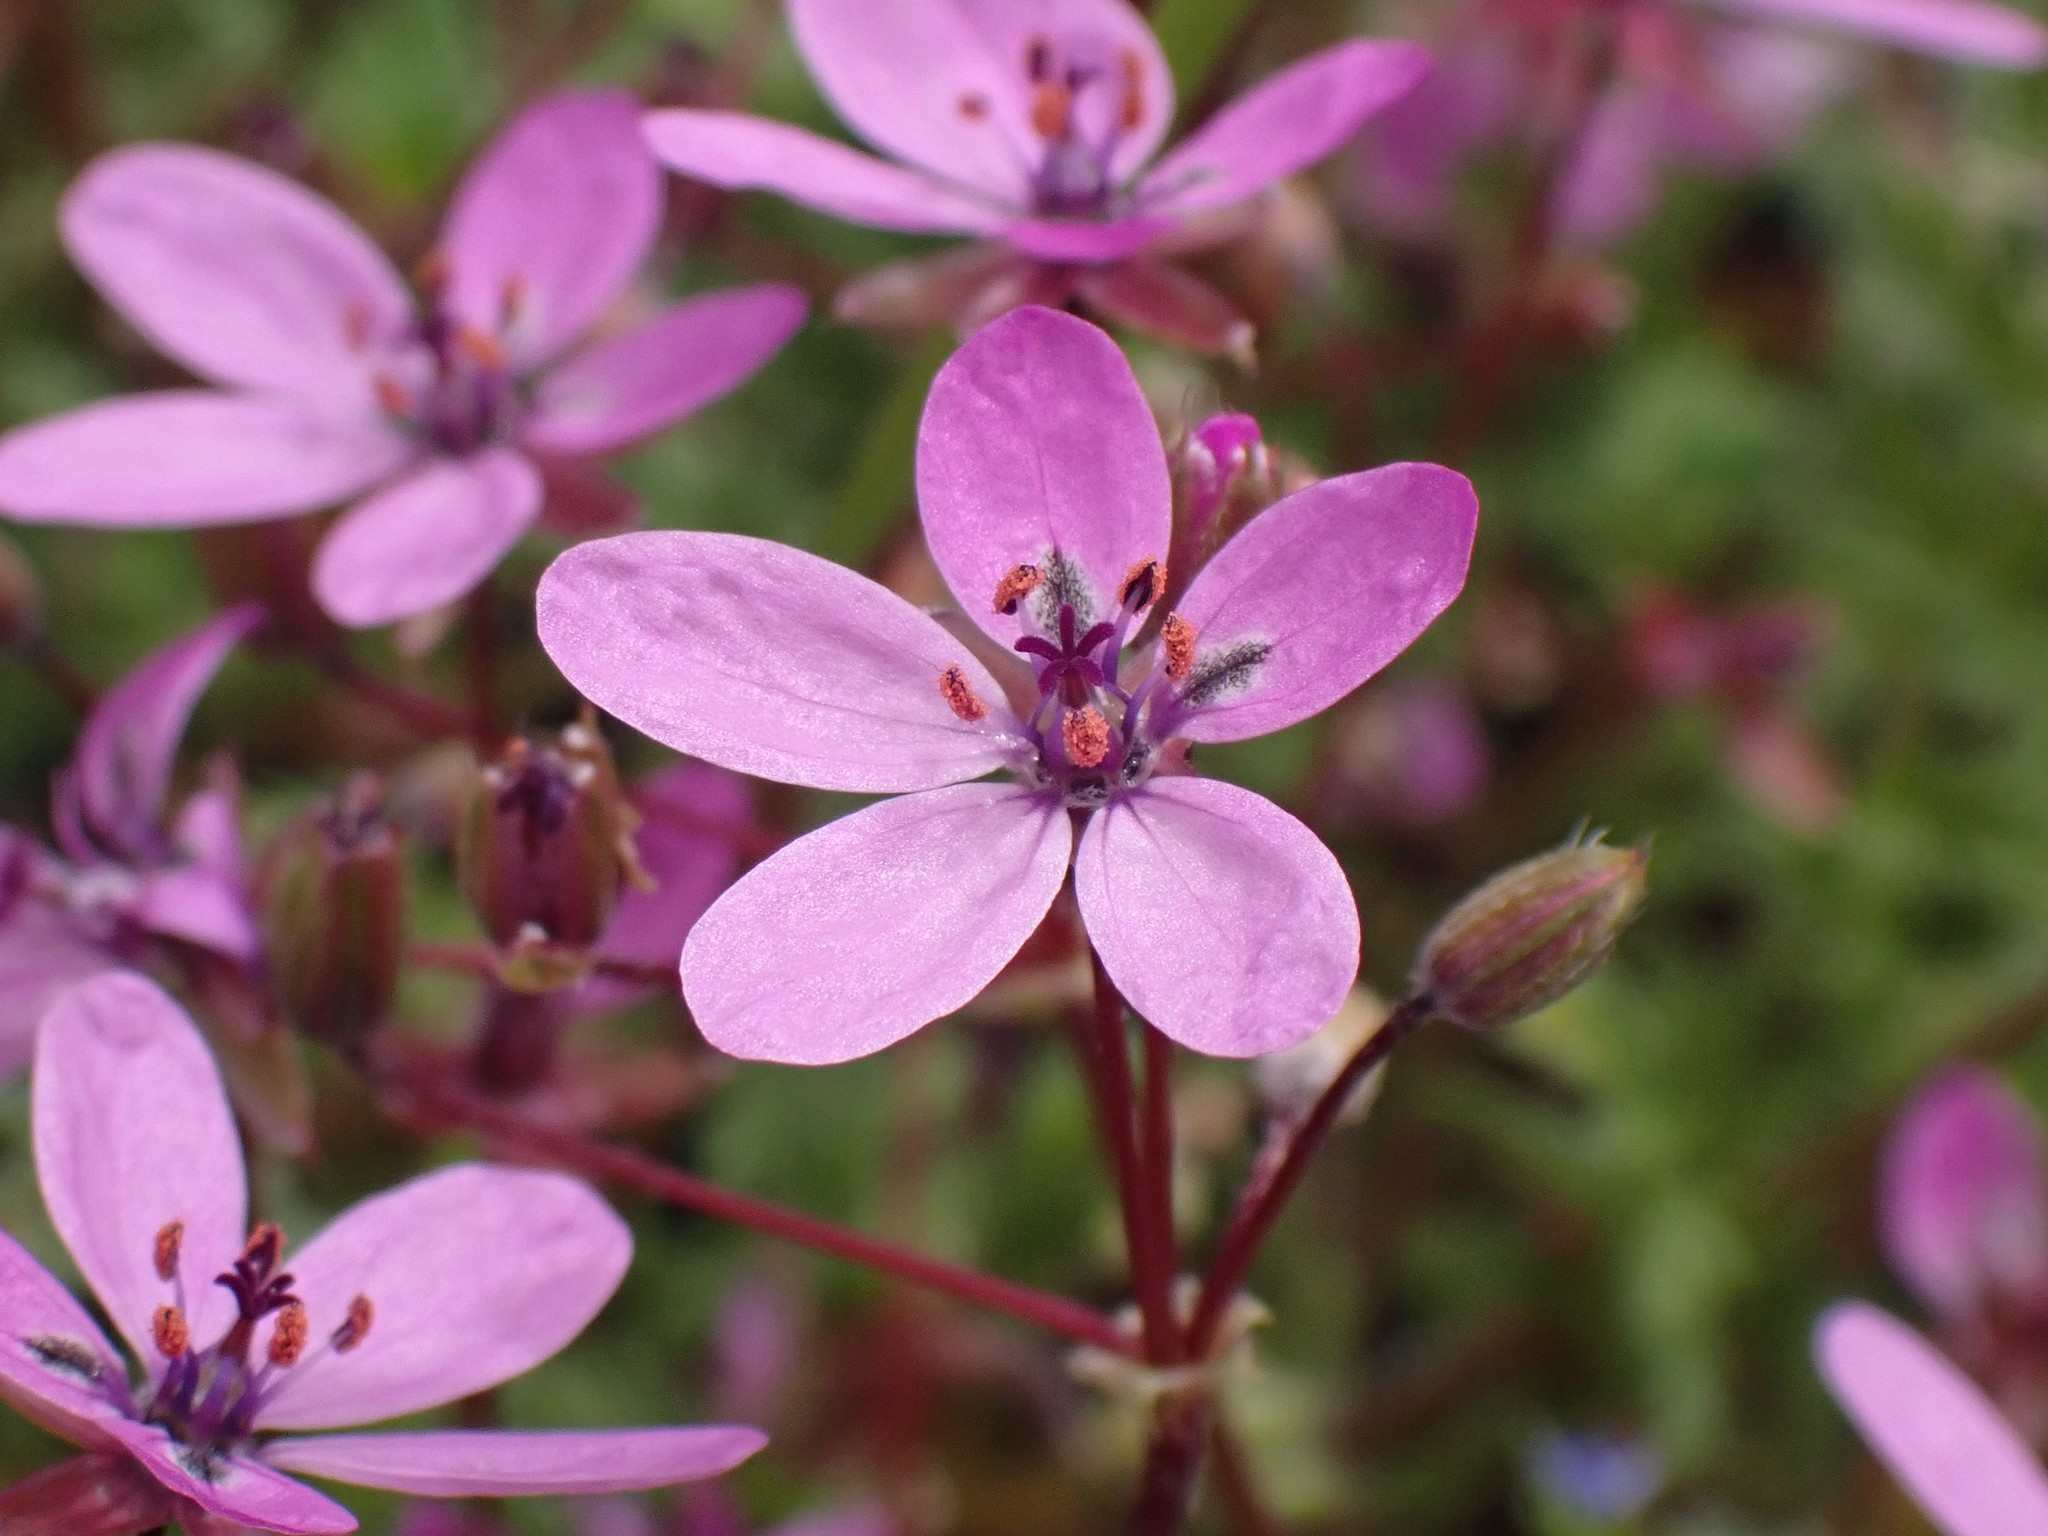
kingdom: Plantae
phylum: Tracheophyta
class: Magnoliopsida
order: Geraniales
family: Geraniaceae
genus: Erodium
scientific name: Erodium cicutarium
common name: Common stork's-bill
